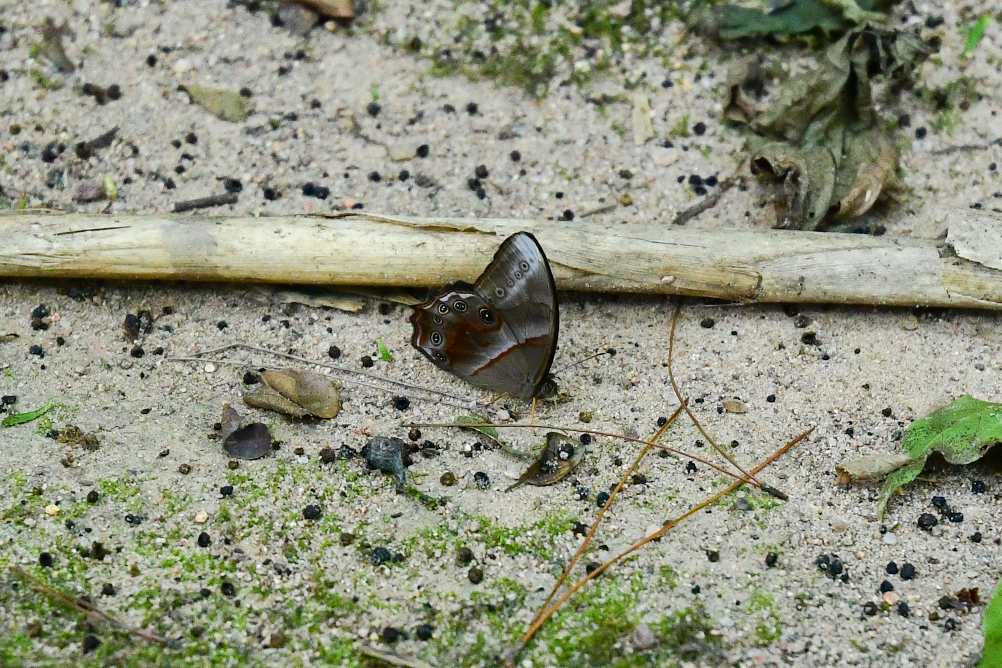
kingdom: Animalia
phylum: Arthropoda
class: Insecta
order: Lepidoptera
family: Nymphalidae
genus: Lethe
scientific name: Lethe chandica
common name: Angled red forester
